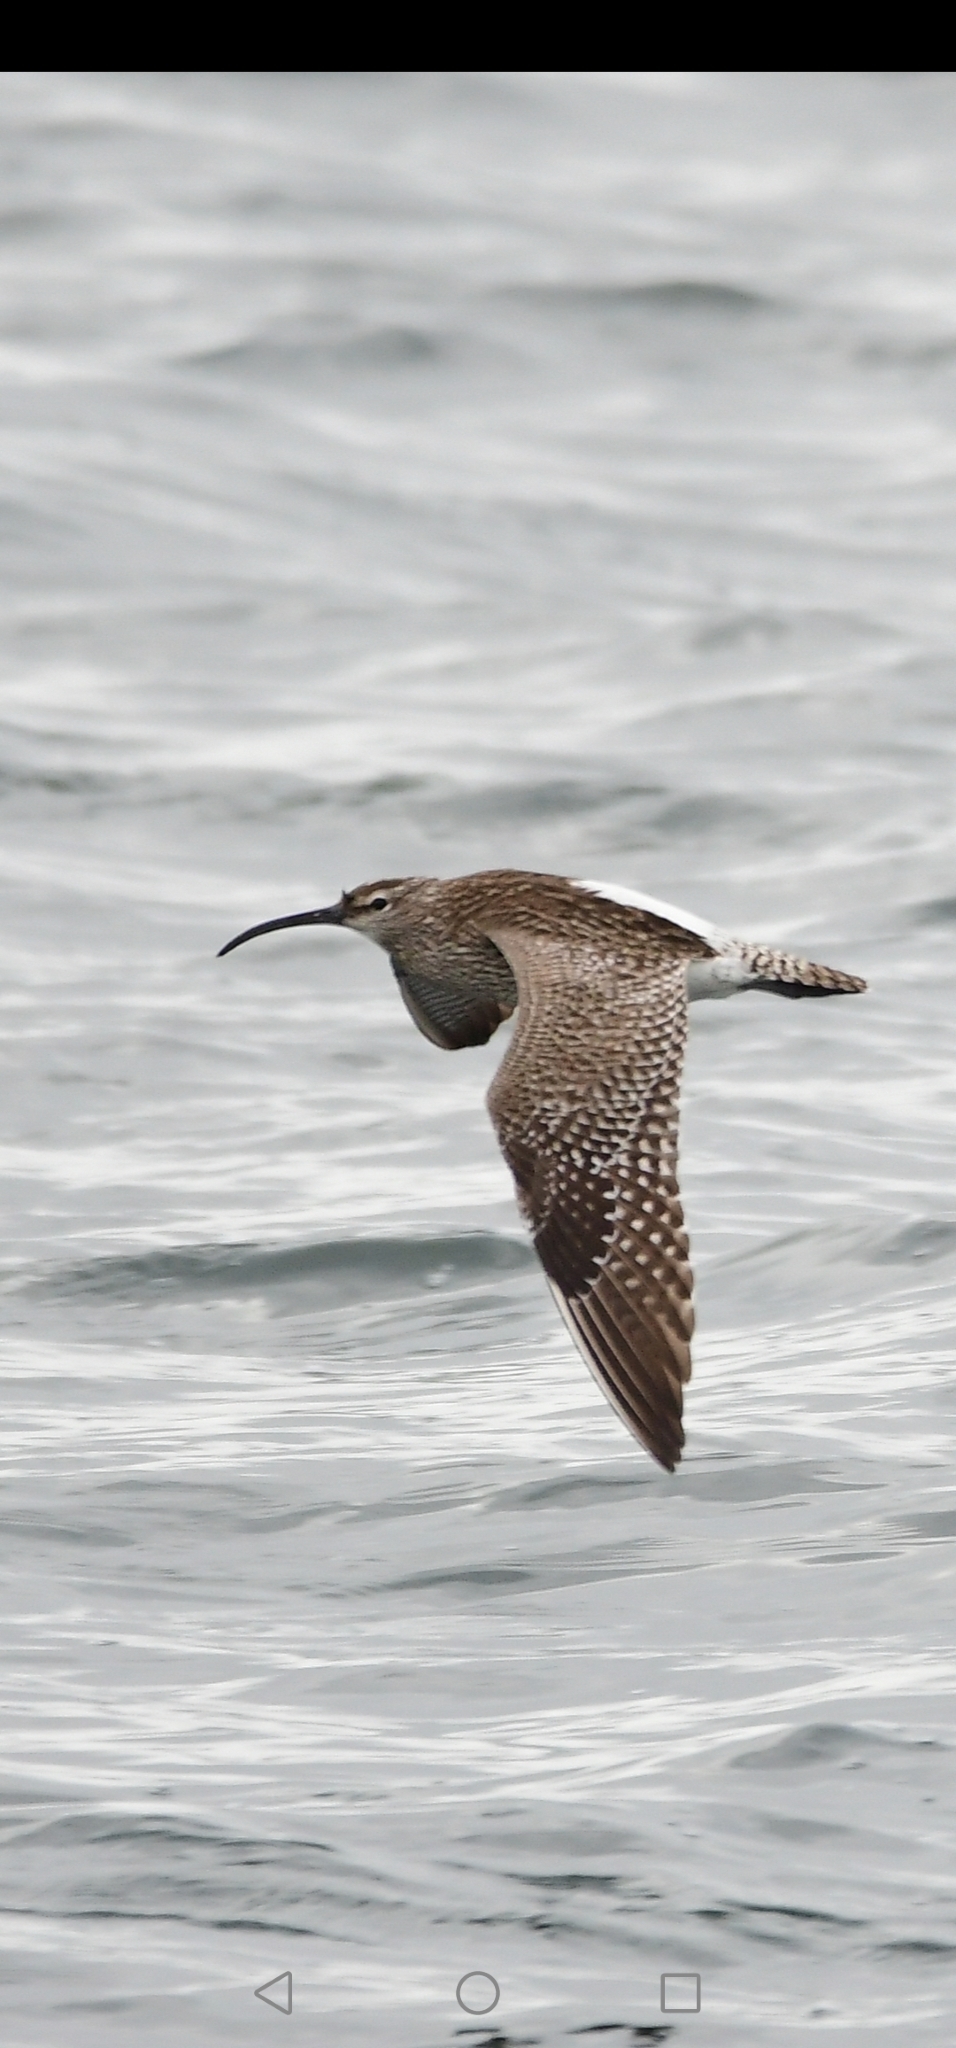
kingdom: Animalia
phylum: Chordata
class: Aves
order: Charadriiformes
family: Scolopacidae
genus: Numenius
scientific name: Numenius arquata
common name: Eurasian curlew
